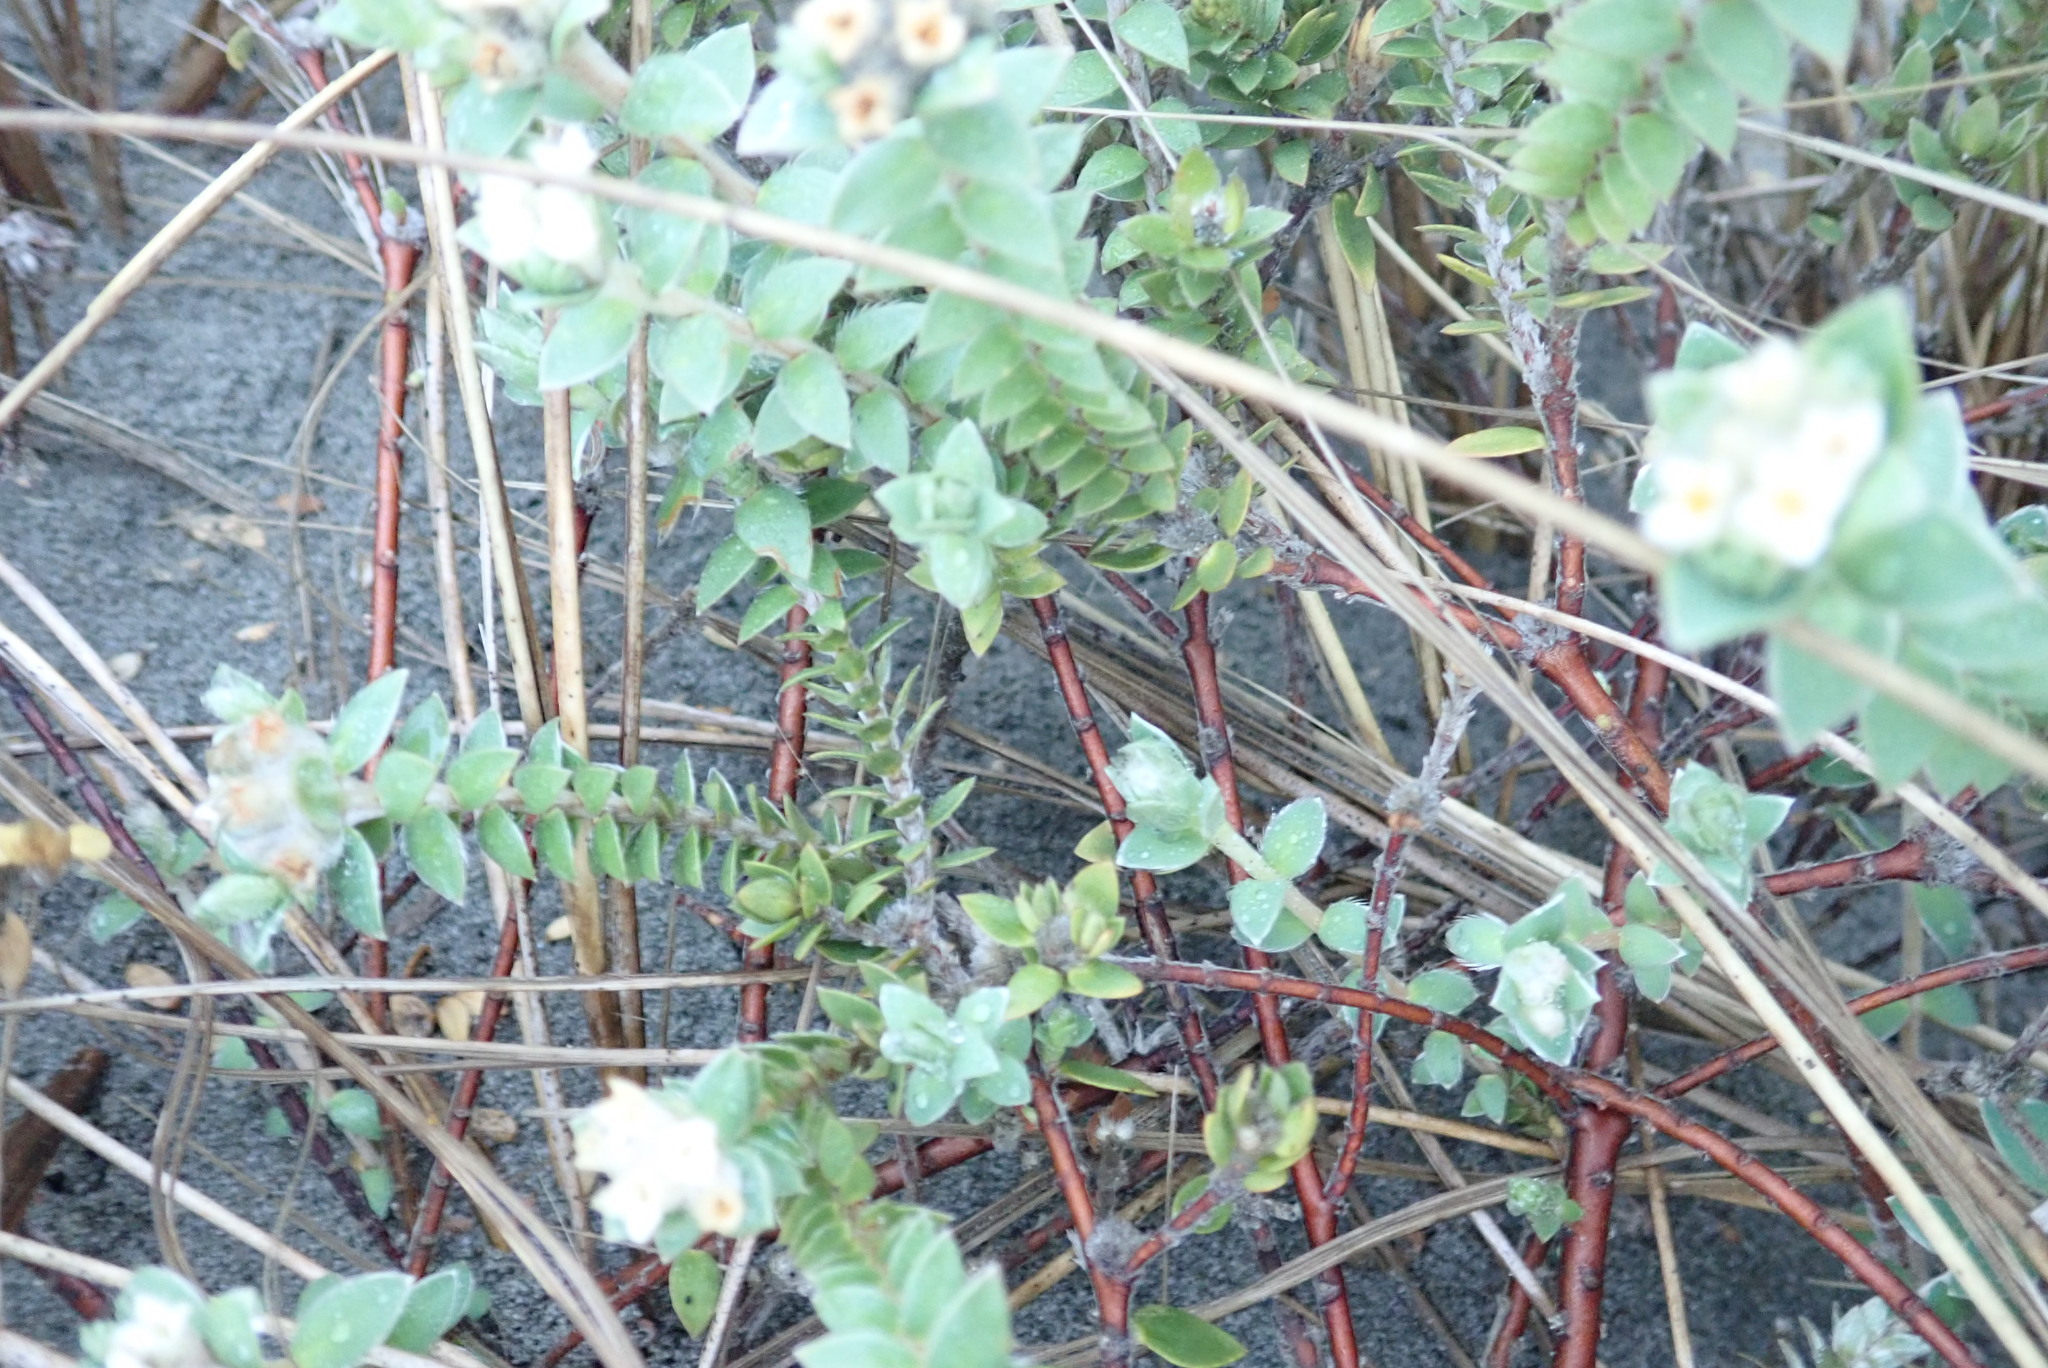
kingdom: Plantae
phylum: Tracheophyta
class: Magnoliopsida
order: Malvales
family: Thymelaeaceae
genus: Pimelea
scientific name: Pimelea villosa
